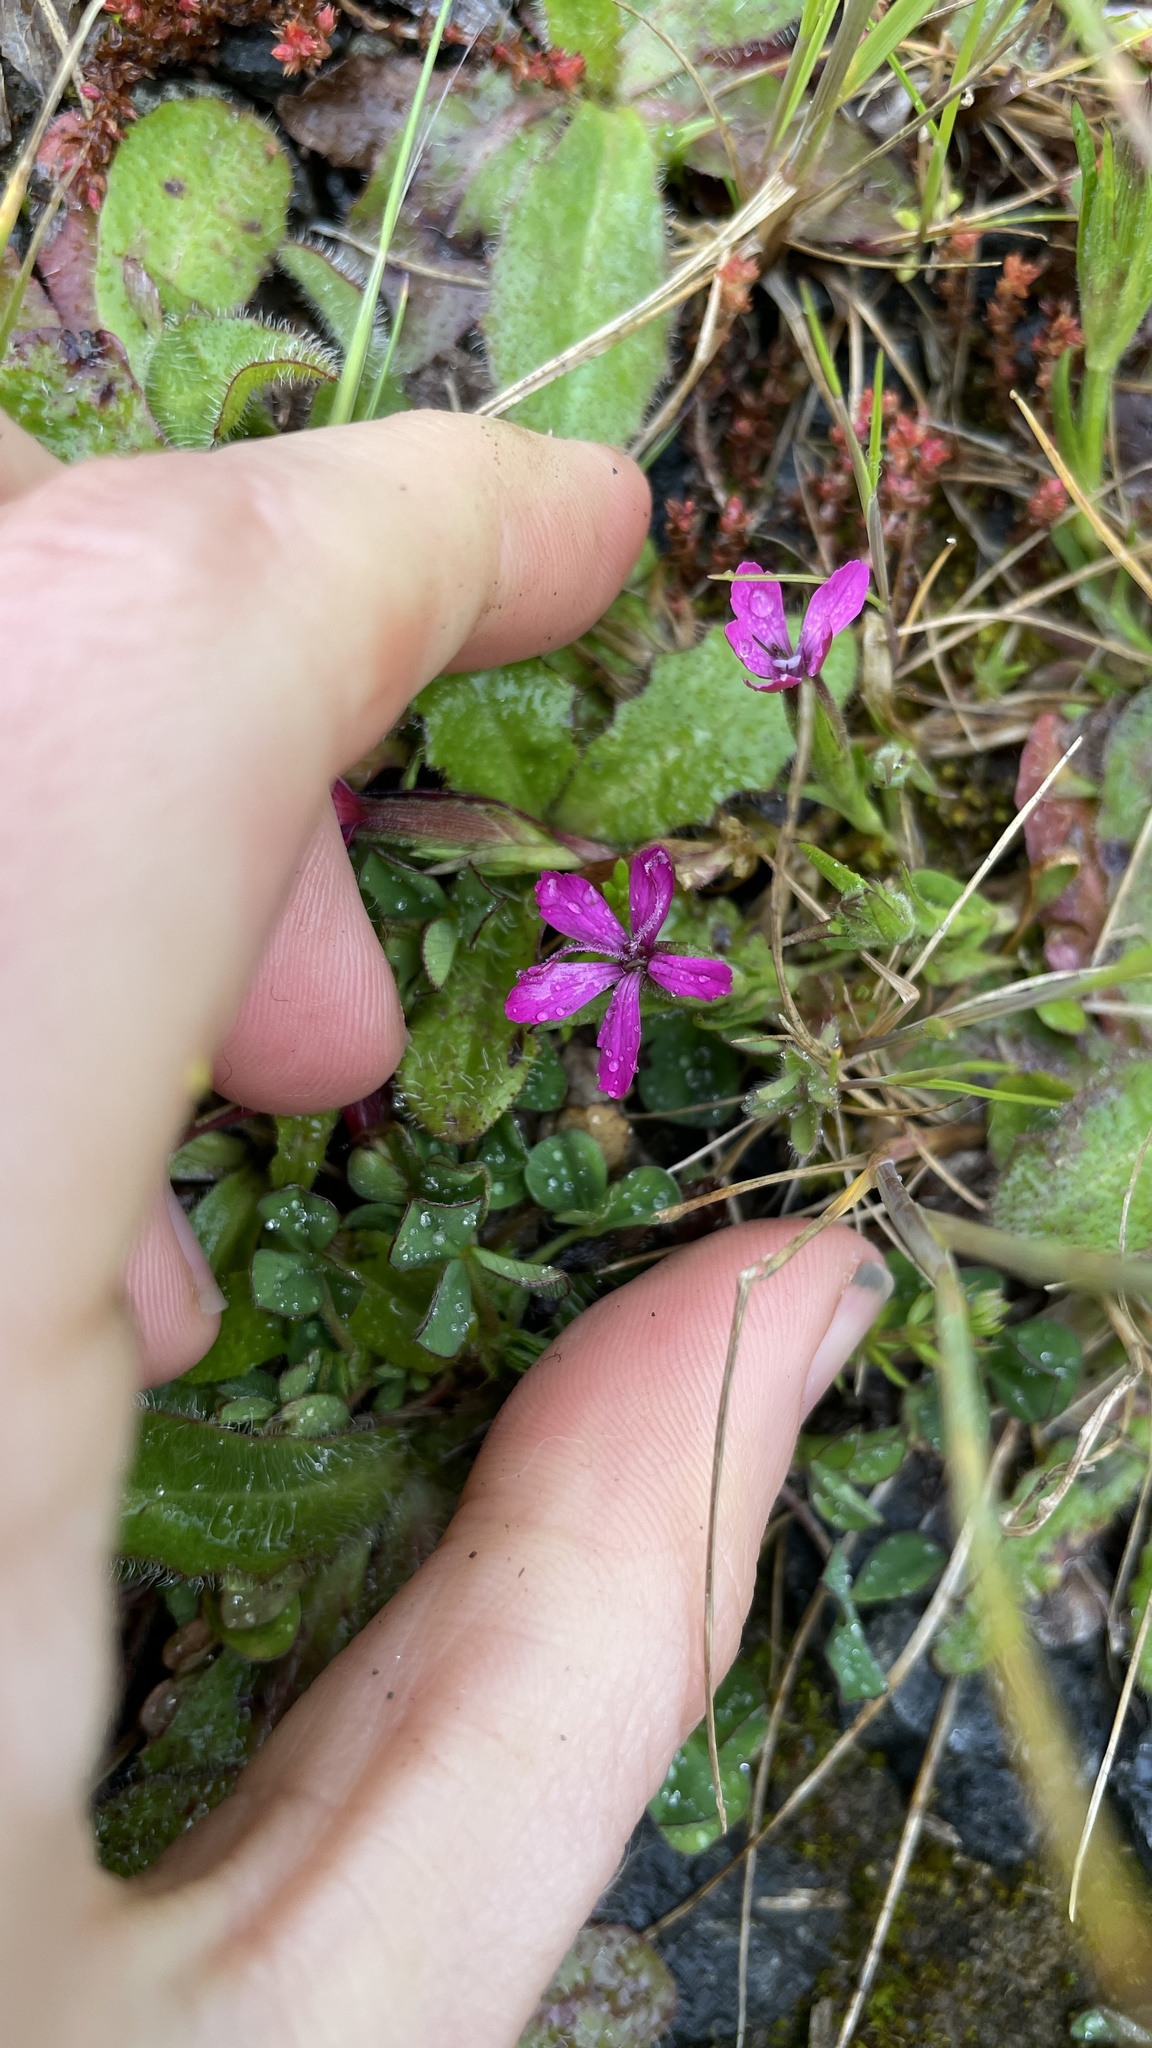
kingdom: Plantae
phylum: Tracheophyta
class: Magnoliopsida
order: Caryophyllales
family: Caryophyllaceae
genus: Dianthus
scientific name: Dianthus armeria
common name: Deptford pink
